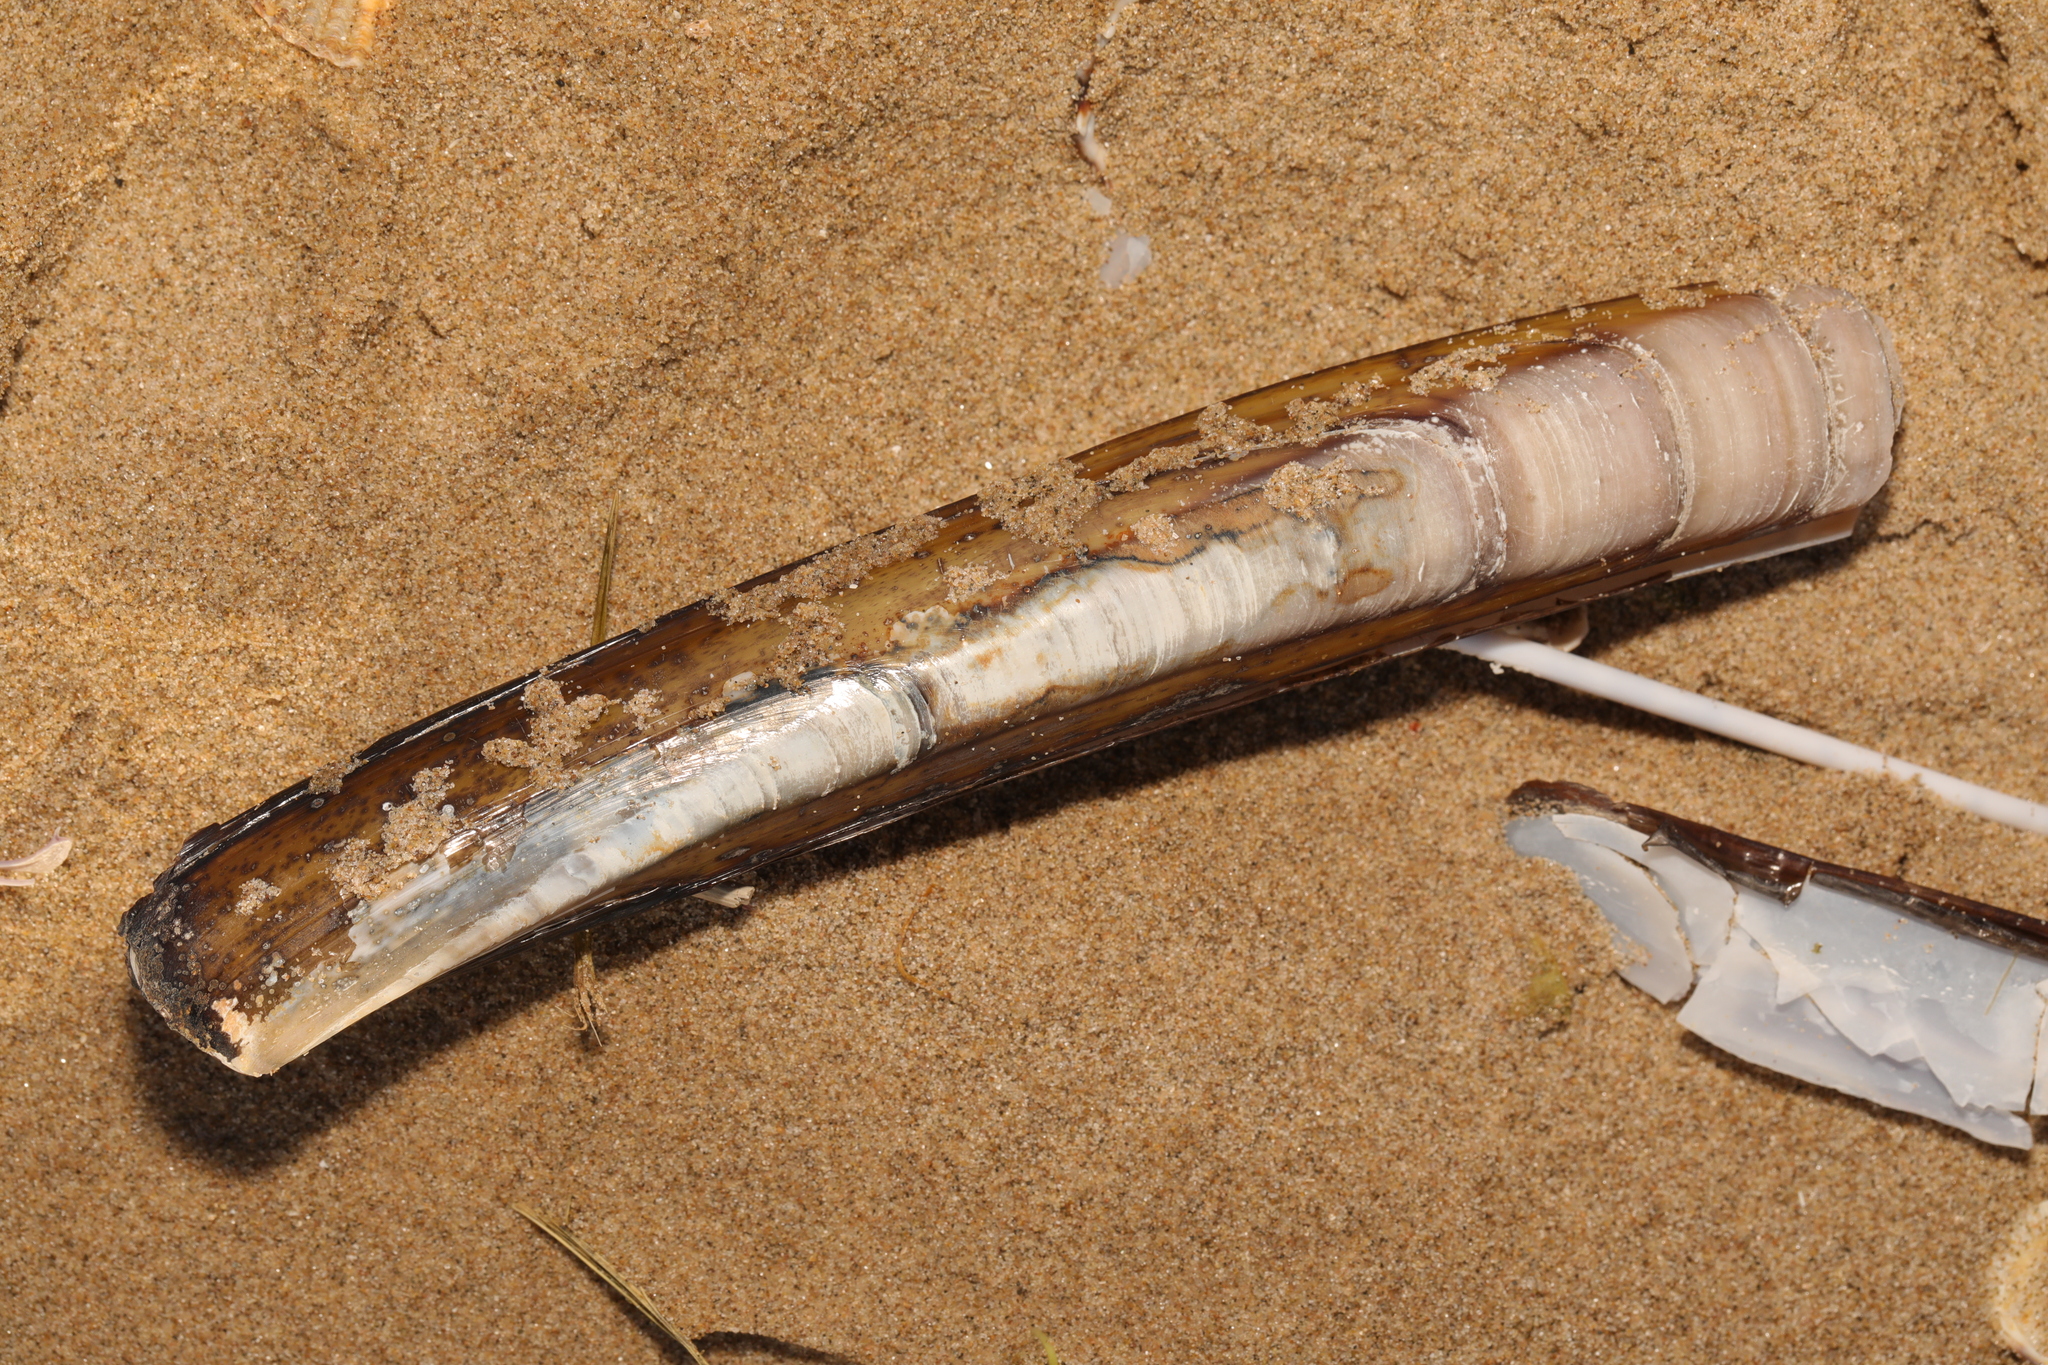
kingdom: Animalia
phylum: Mollusca
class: Bivalvia
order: Adapedonta
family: Pharidae
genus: Ensis
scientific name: Ensis leei
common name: American jack knife clam
